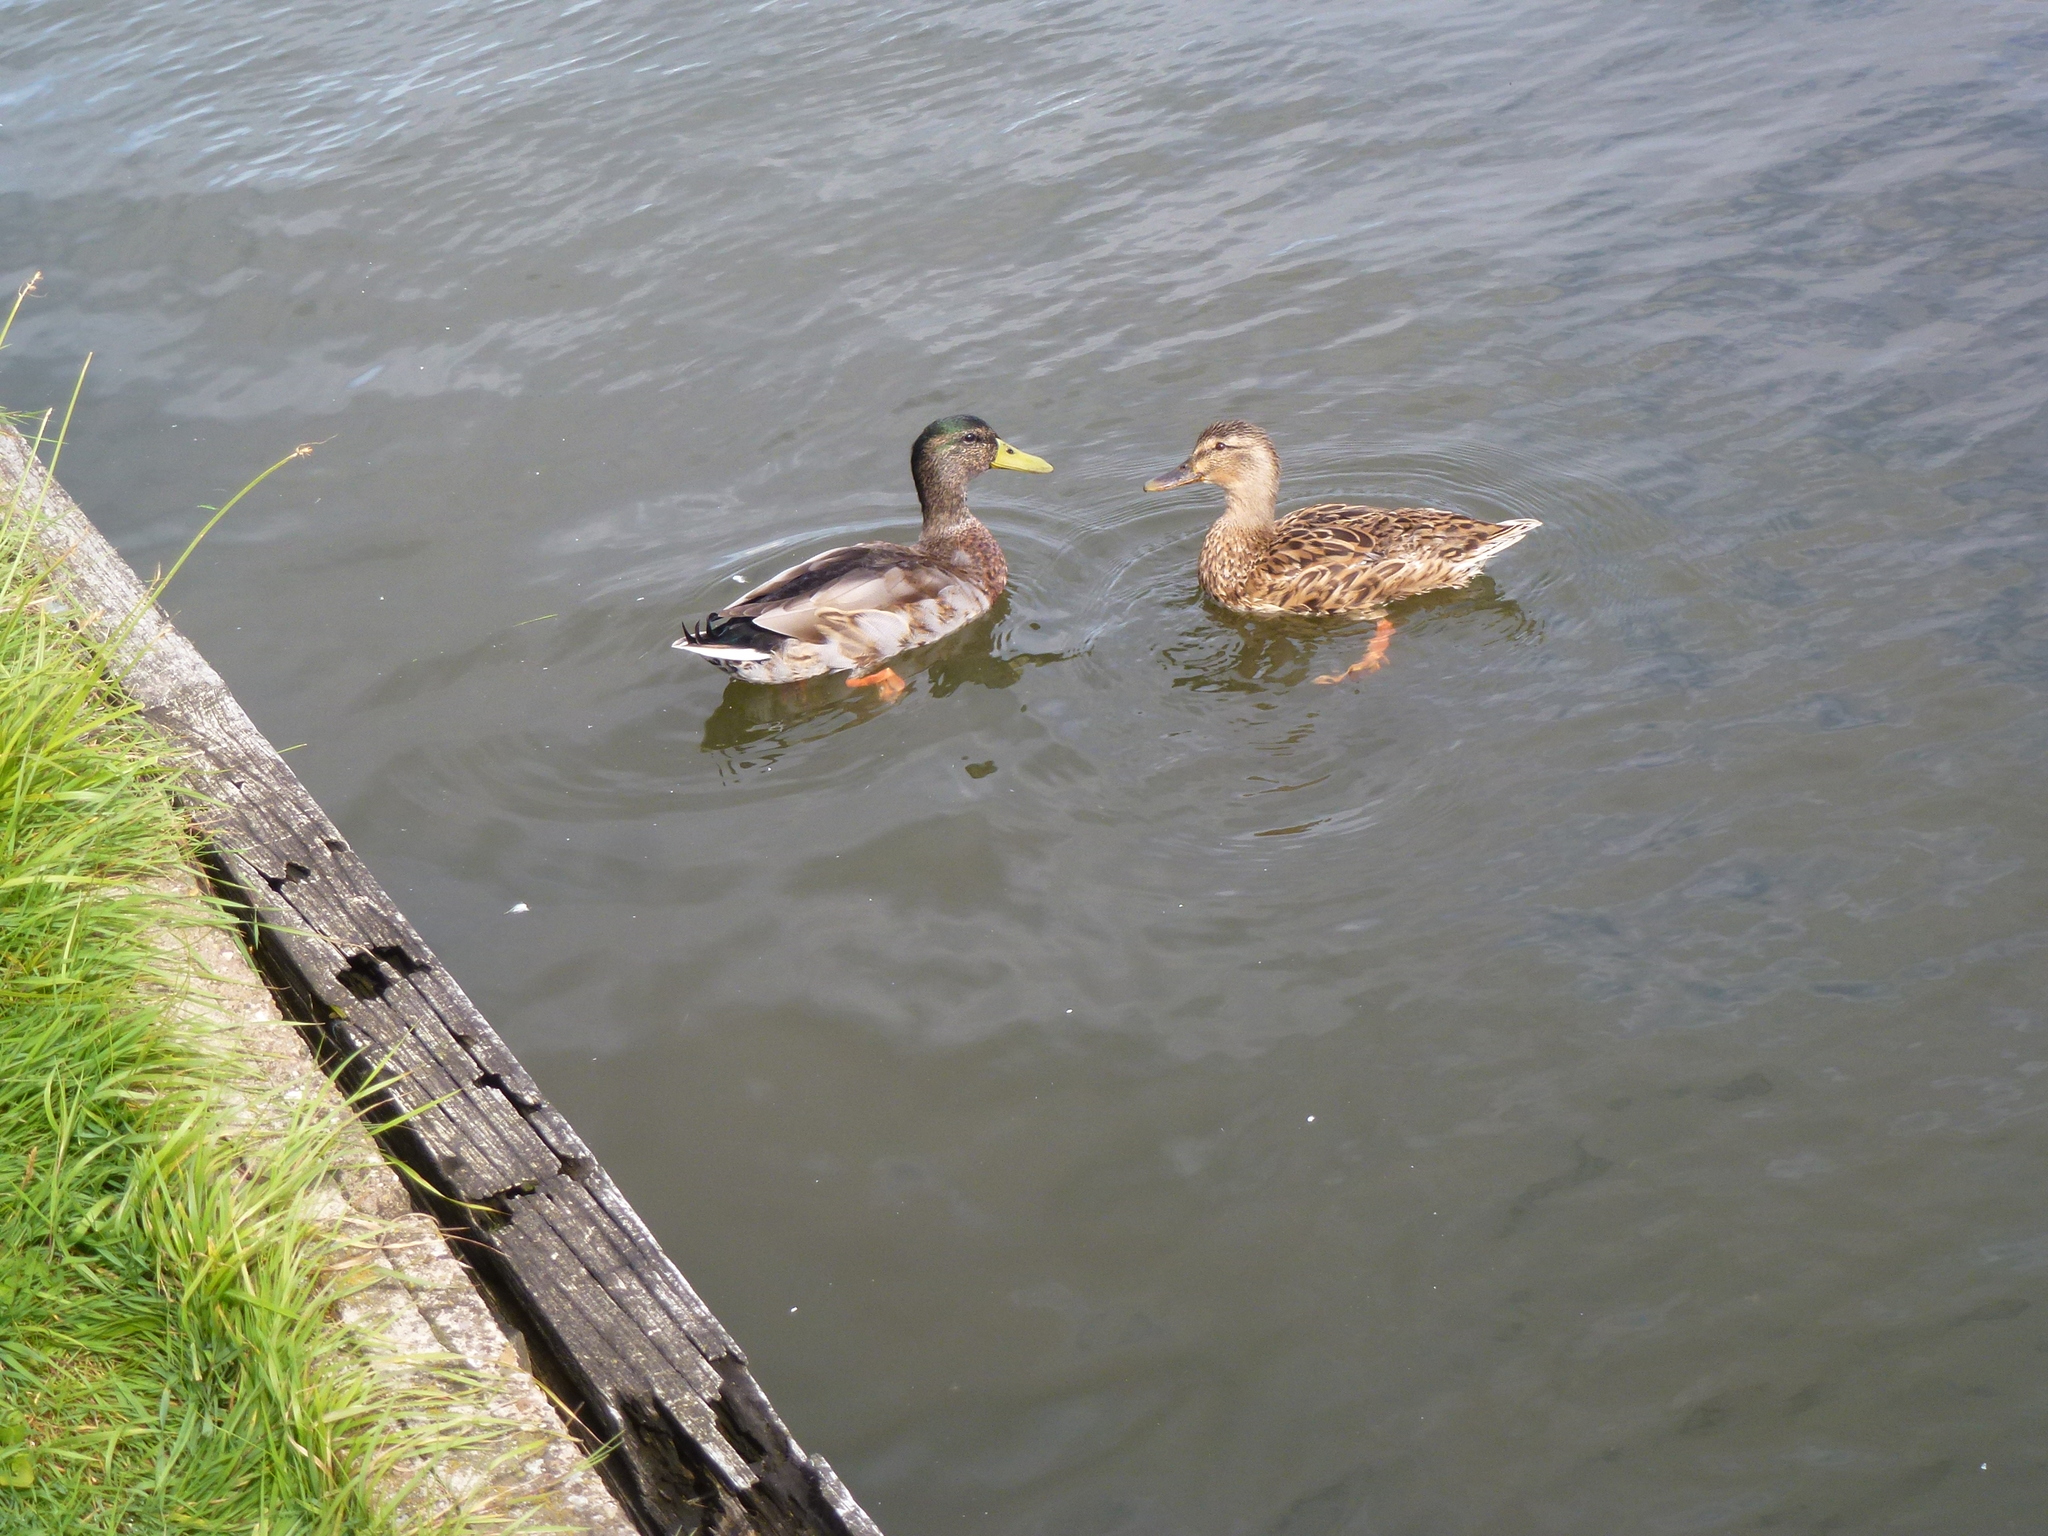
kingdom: Animalia
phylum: Chordata
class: Aves
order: Anseriformes
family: Anatidae
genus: Anas
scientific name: Anas platyrhynchos
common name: Mallard
